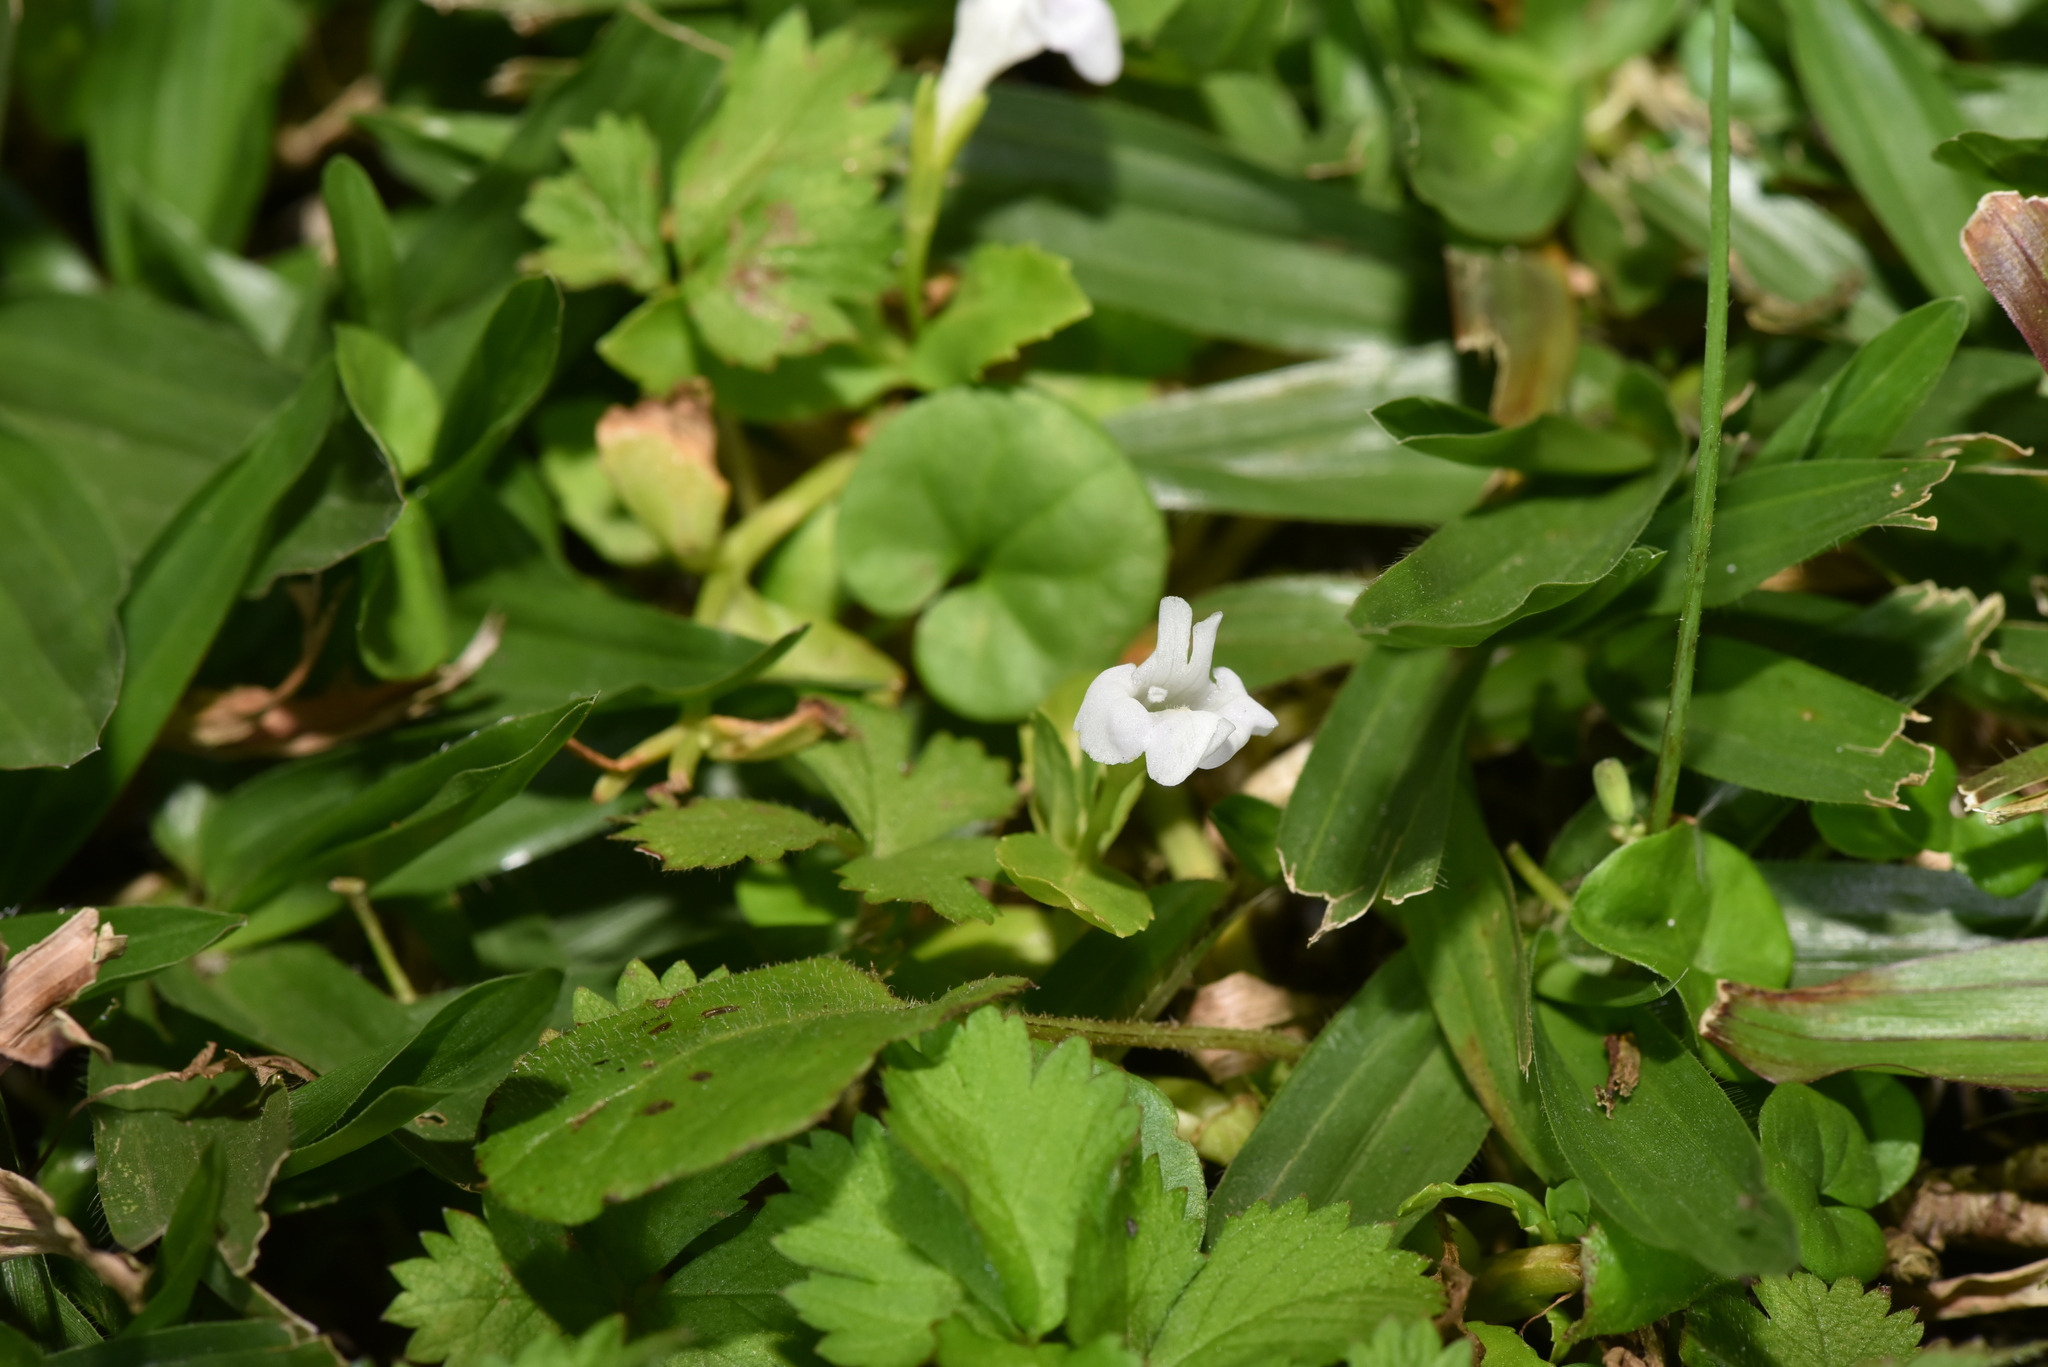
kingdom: Plantae
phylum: Tracheophyta
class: Magnoliopsida
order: Lamiales
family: Linderniaceae
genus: Bonnaya
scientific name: Bonnaya antipoda
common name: Sparrow false pimpernel
